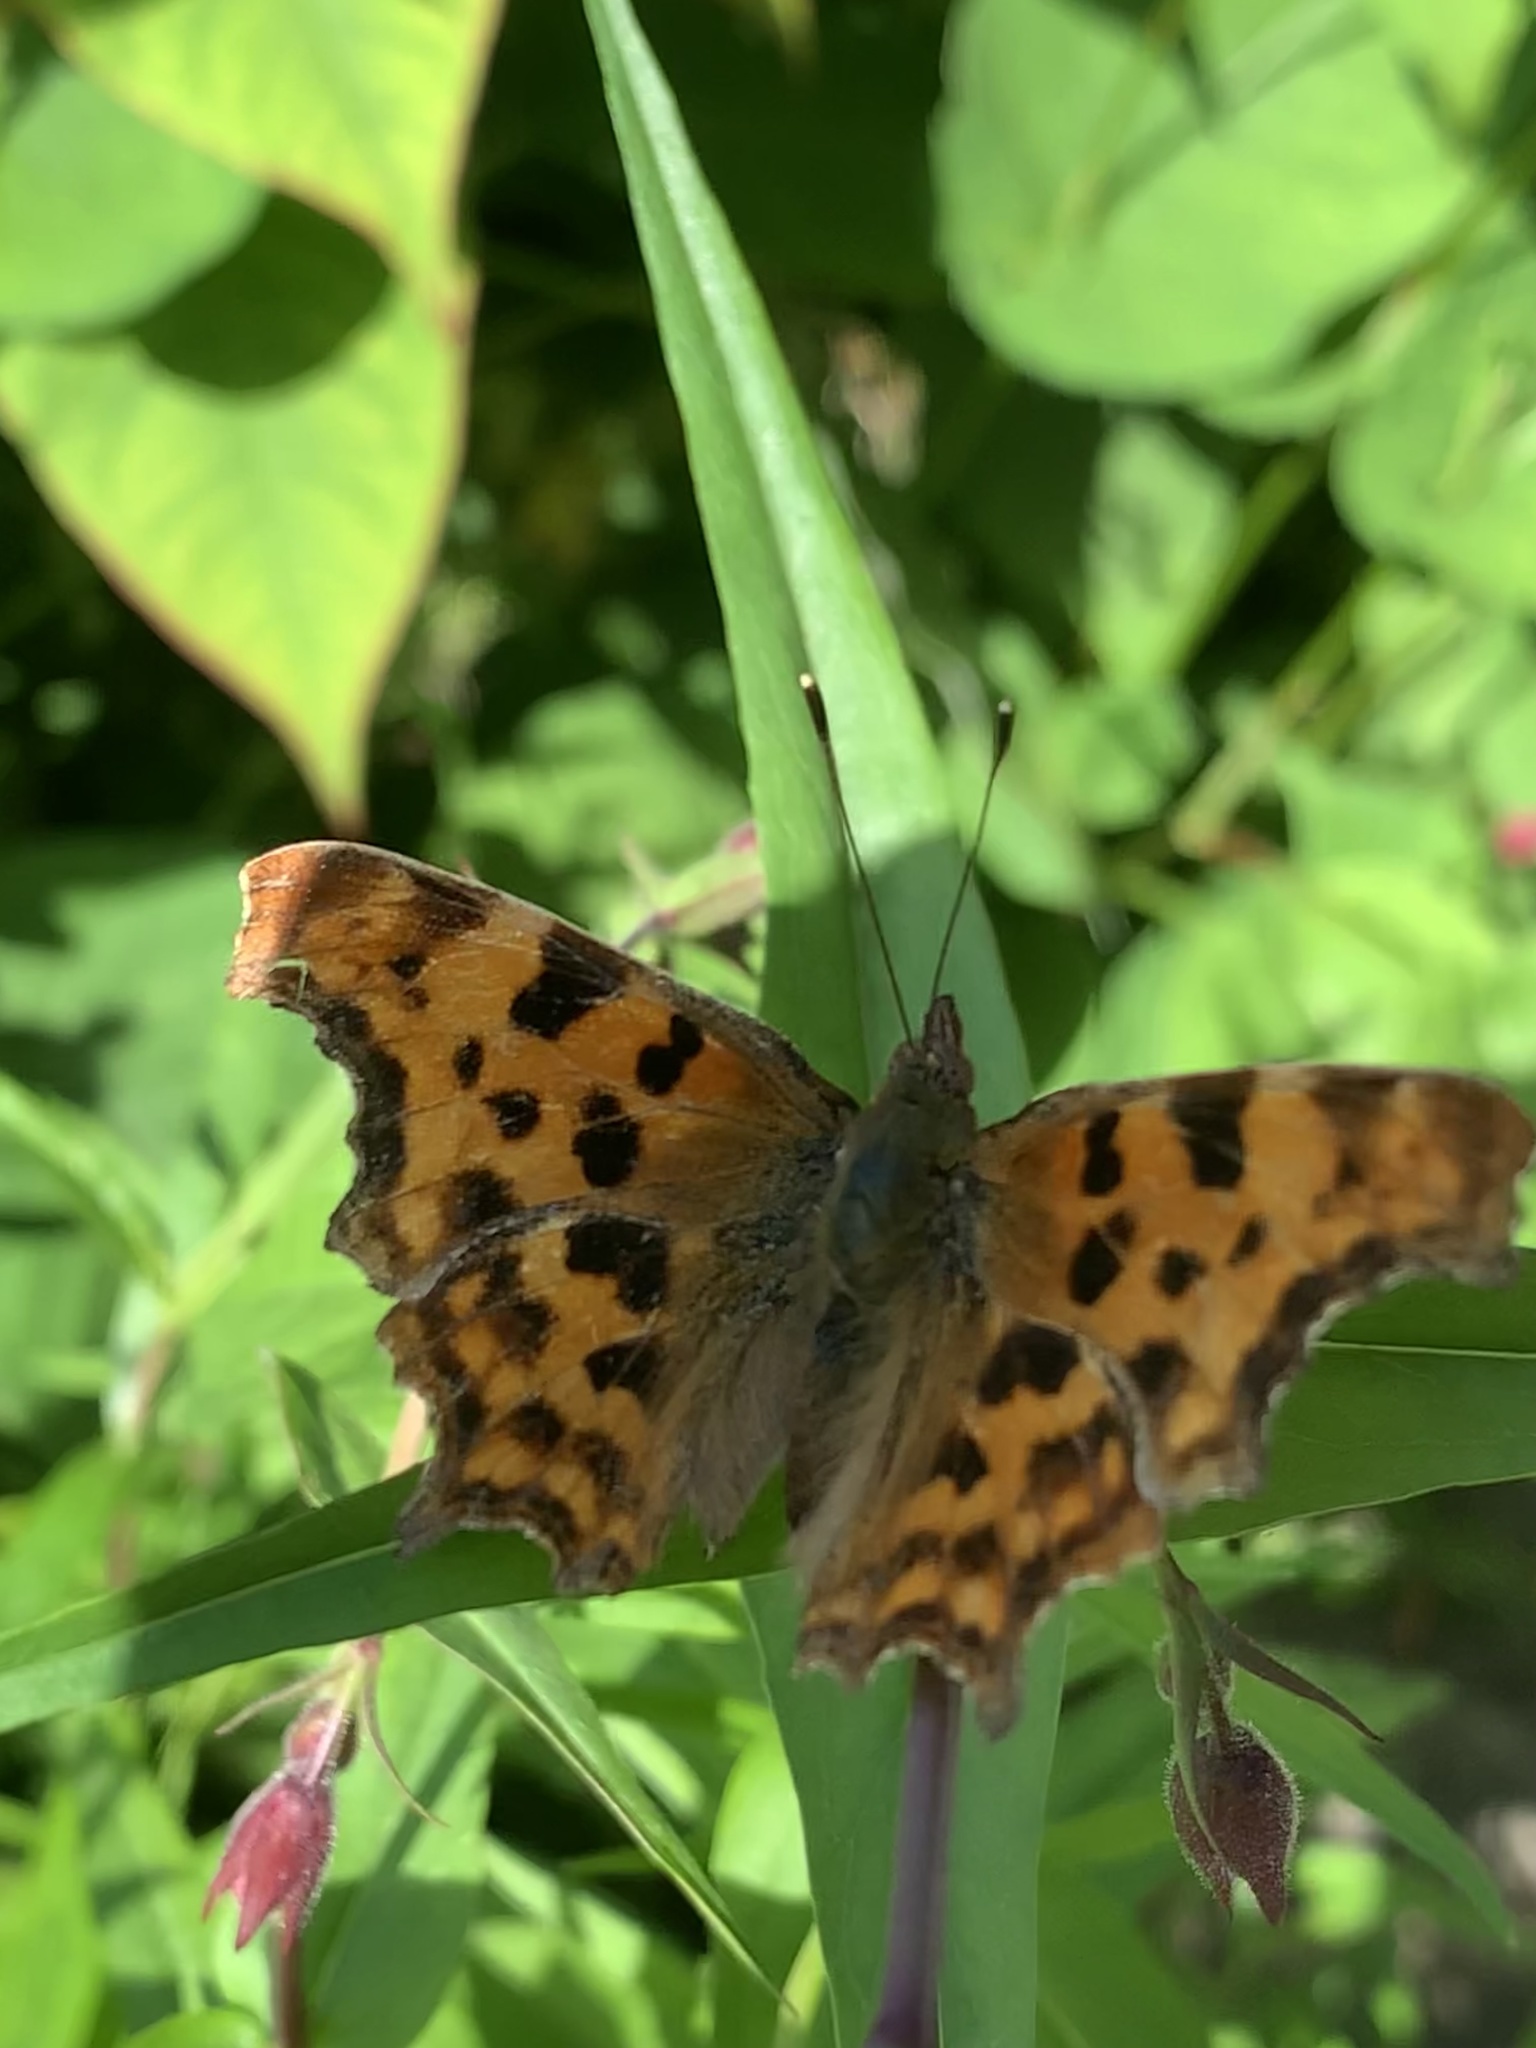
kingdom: Animalia
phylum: Arthropoda
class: Insecta
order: Lepidoptera
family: Nymphalidae
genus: Polygonia
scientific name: Polygonia c-album
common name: Comma
